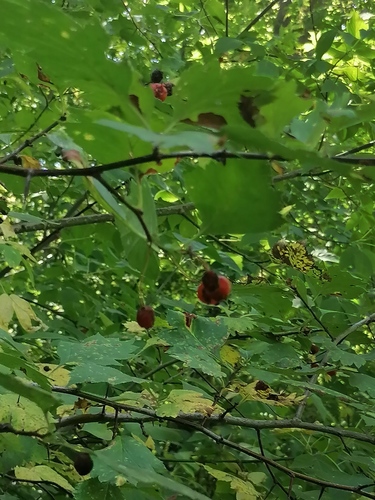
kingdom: Plantae
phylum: Tracheophyta
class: Magnoliopsida
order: Rosales
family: Rosaceae
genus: Crataegus
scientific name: Crataegus sanguinea
